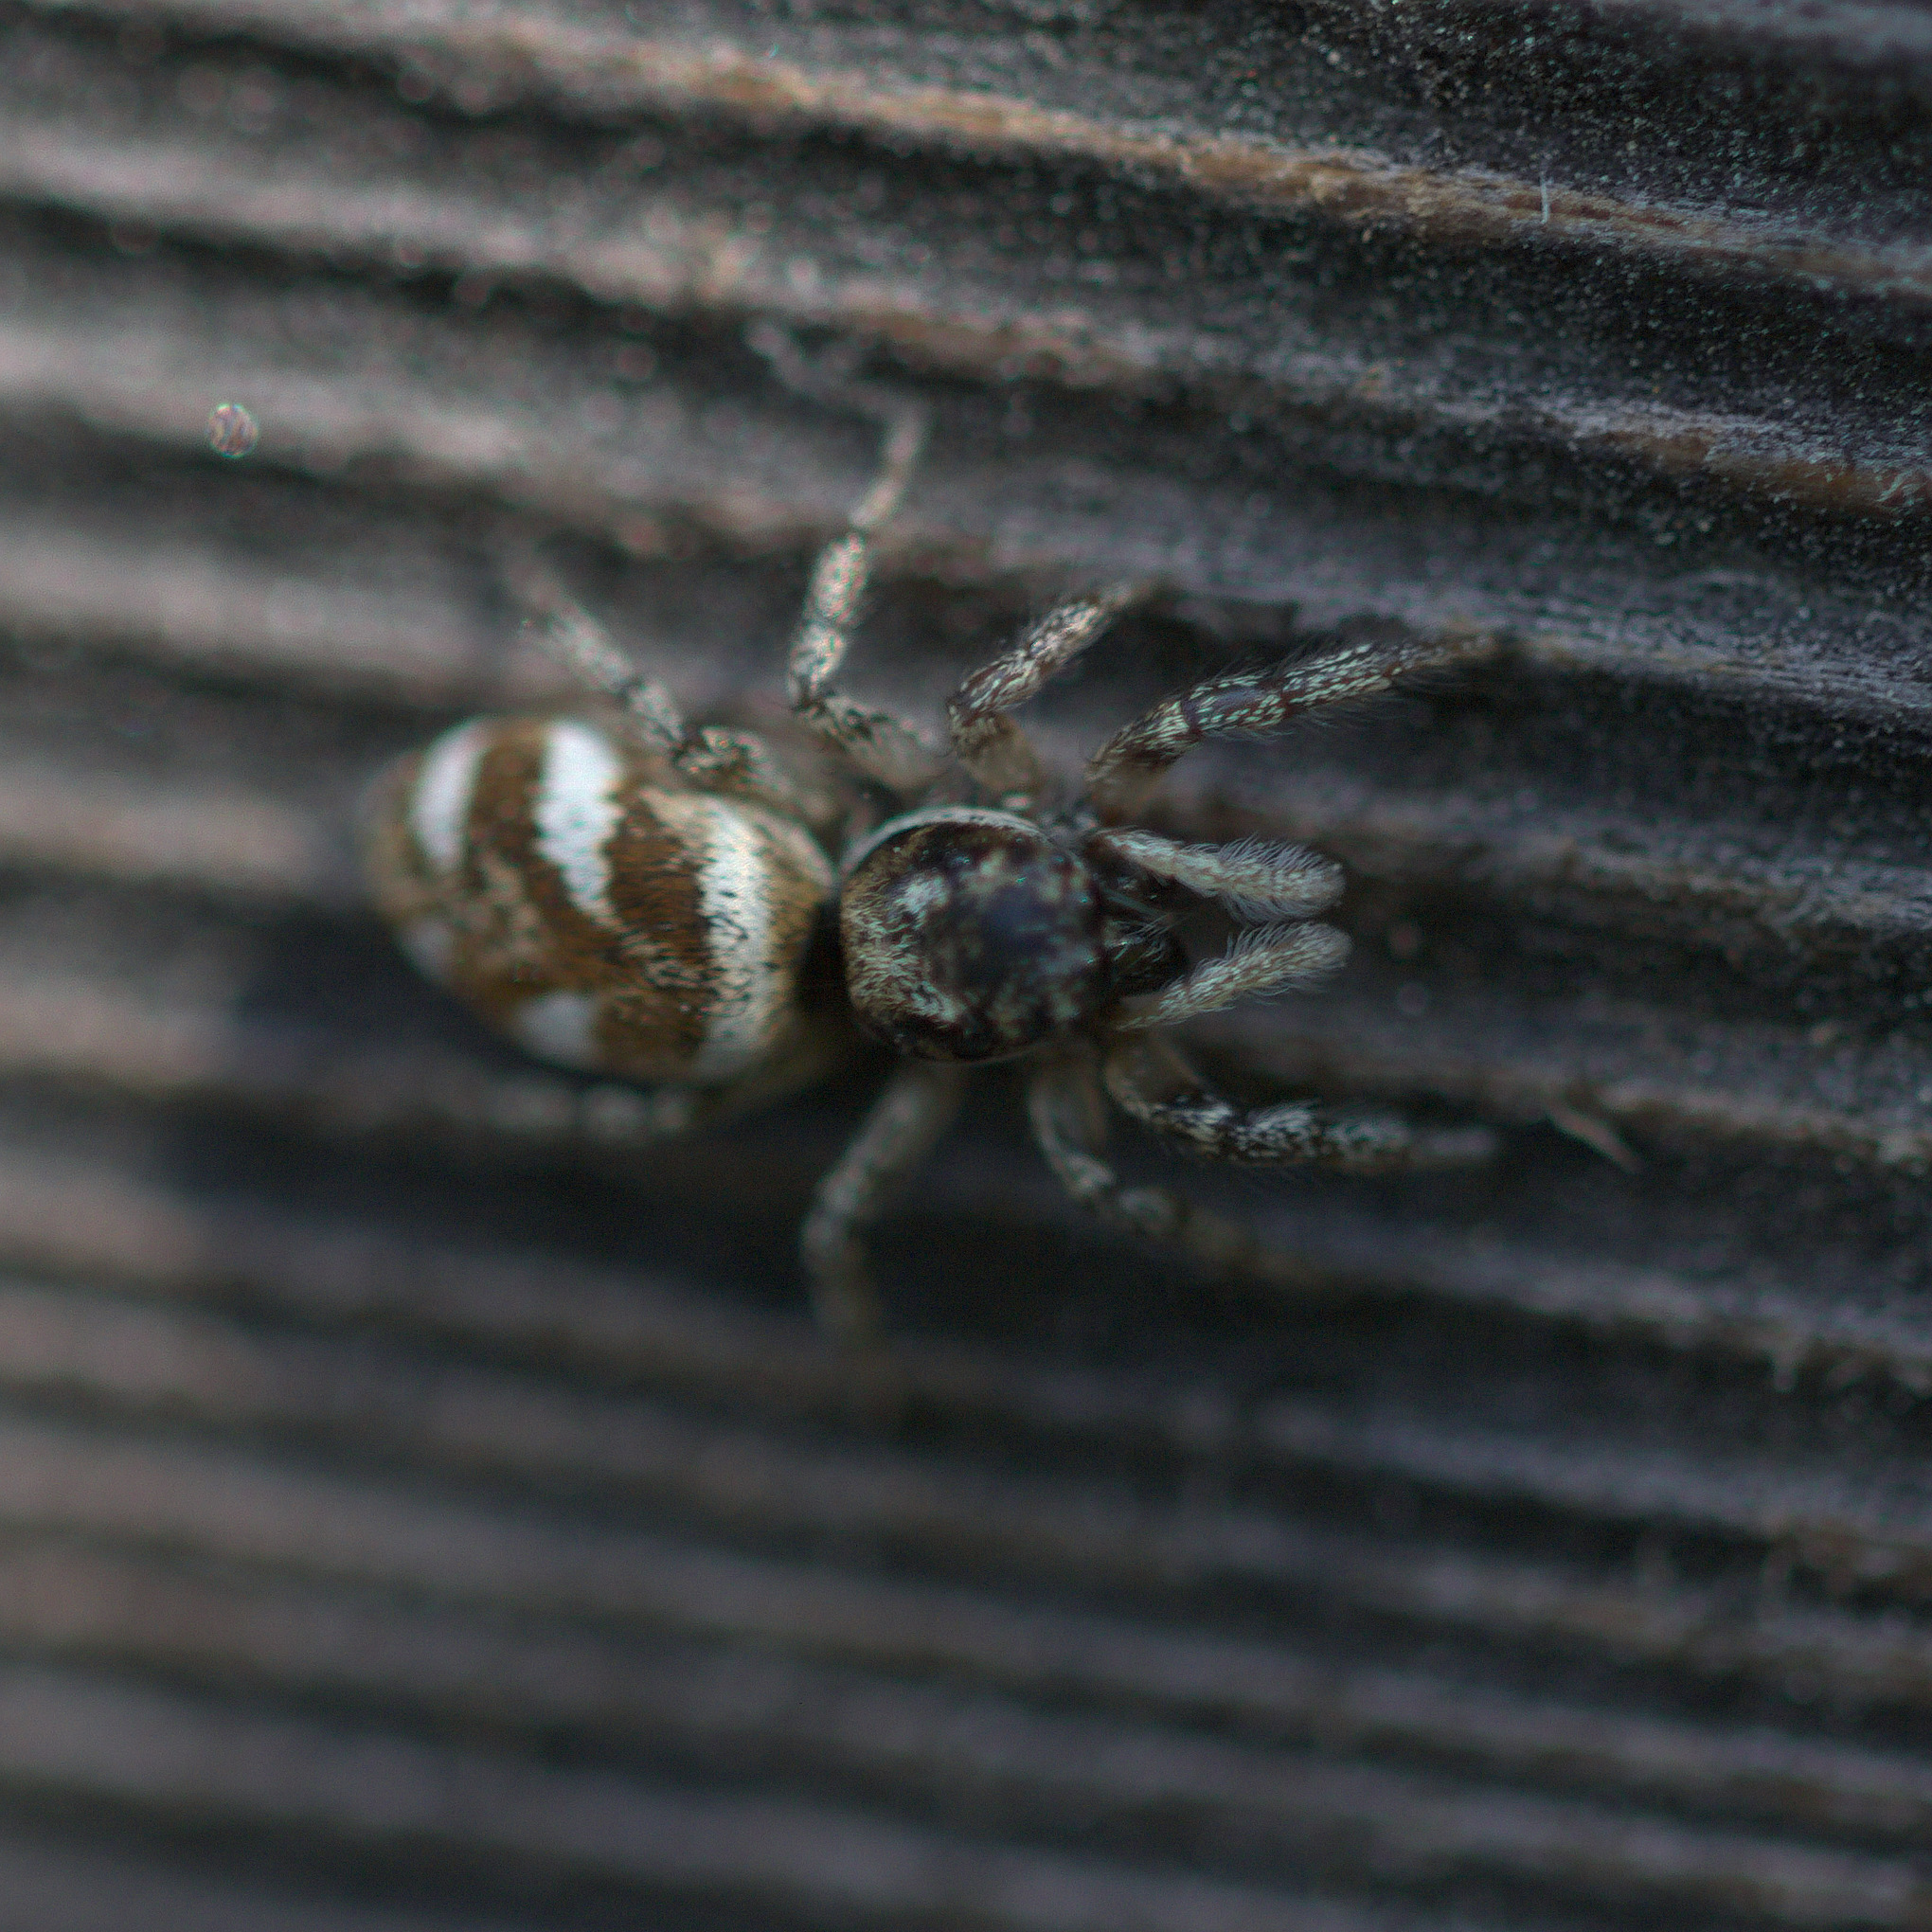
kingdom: Animalia
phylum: Arthropoda
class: Arachnida
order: Araneae
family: Salticidae
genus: Salticus
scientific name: Salticus scenicus
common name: Zebra jumper
